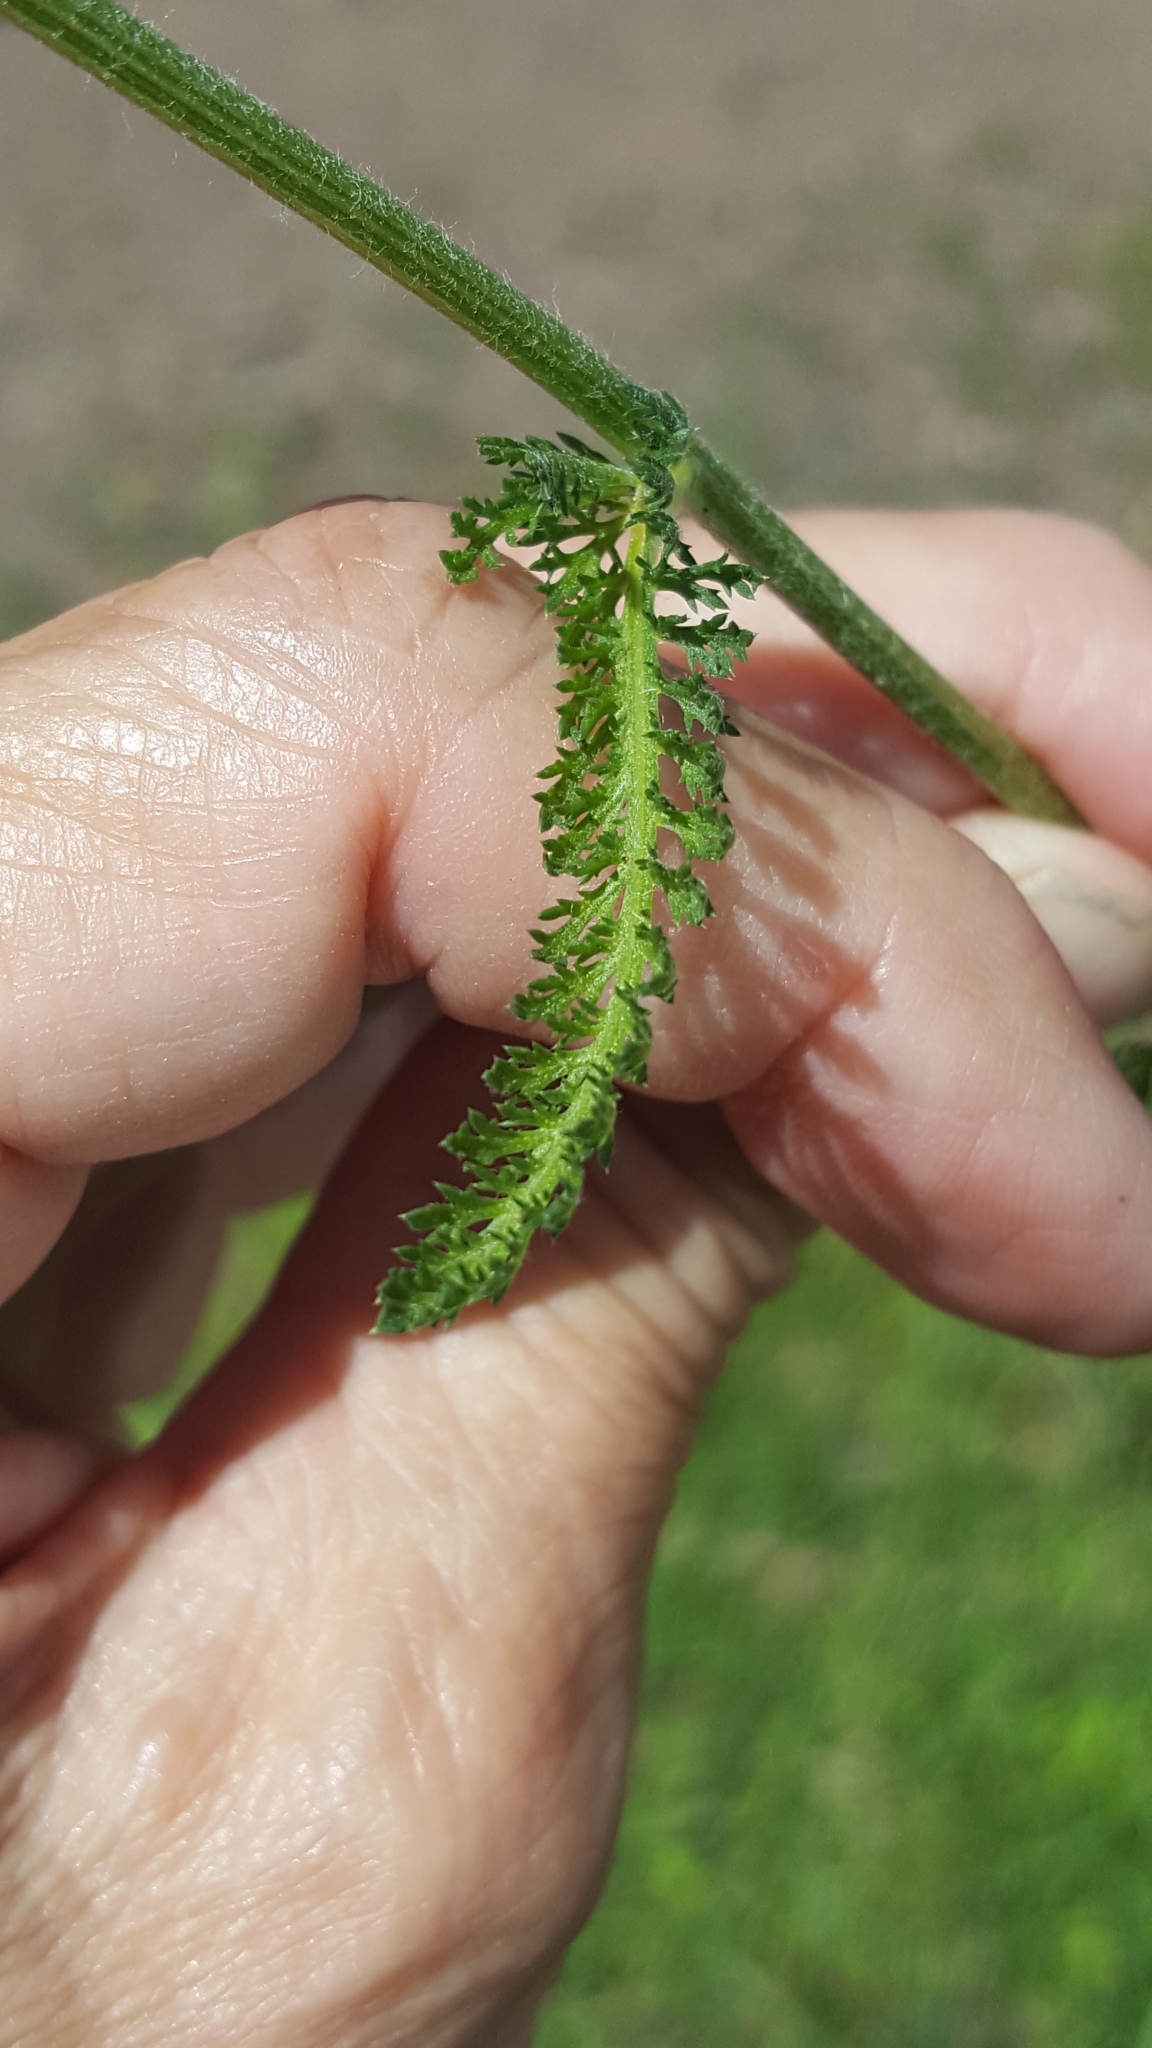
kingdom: Plantae
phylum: Tracheophyta
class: Magnoliopsida
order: Asterales
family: Asteraceae
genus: Achillea
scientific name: Achillea millefolium
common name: Yarrow
